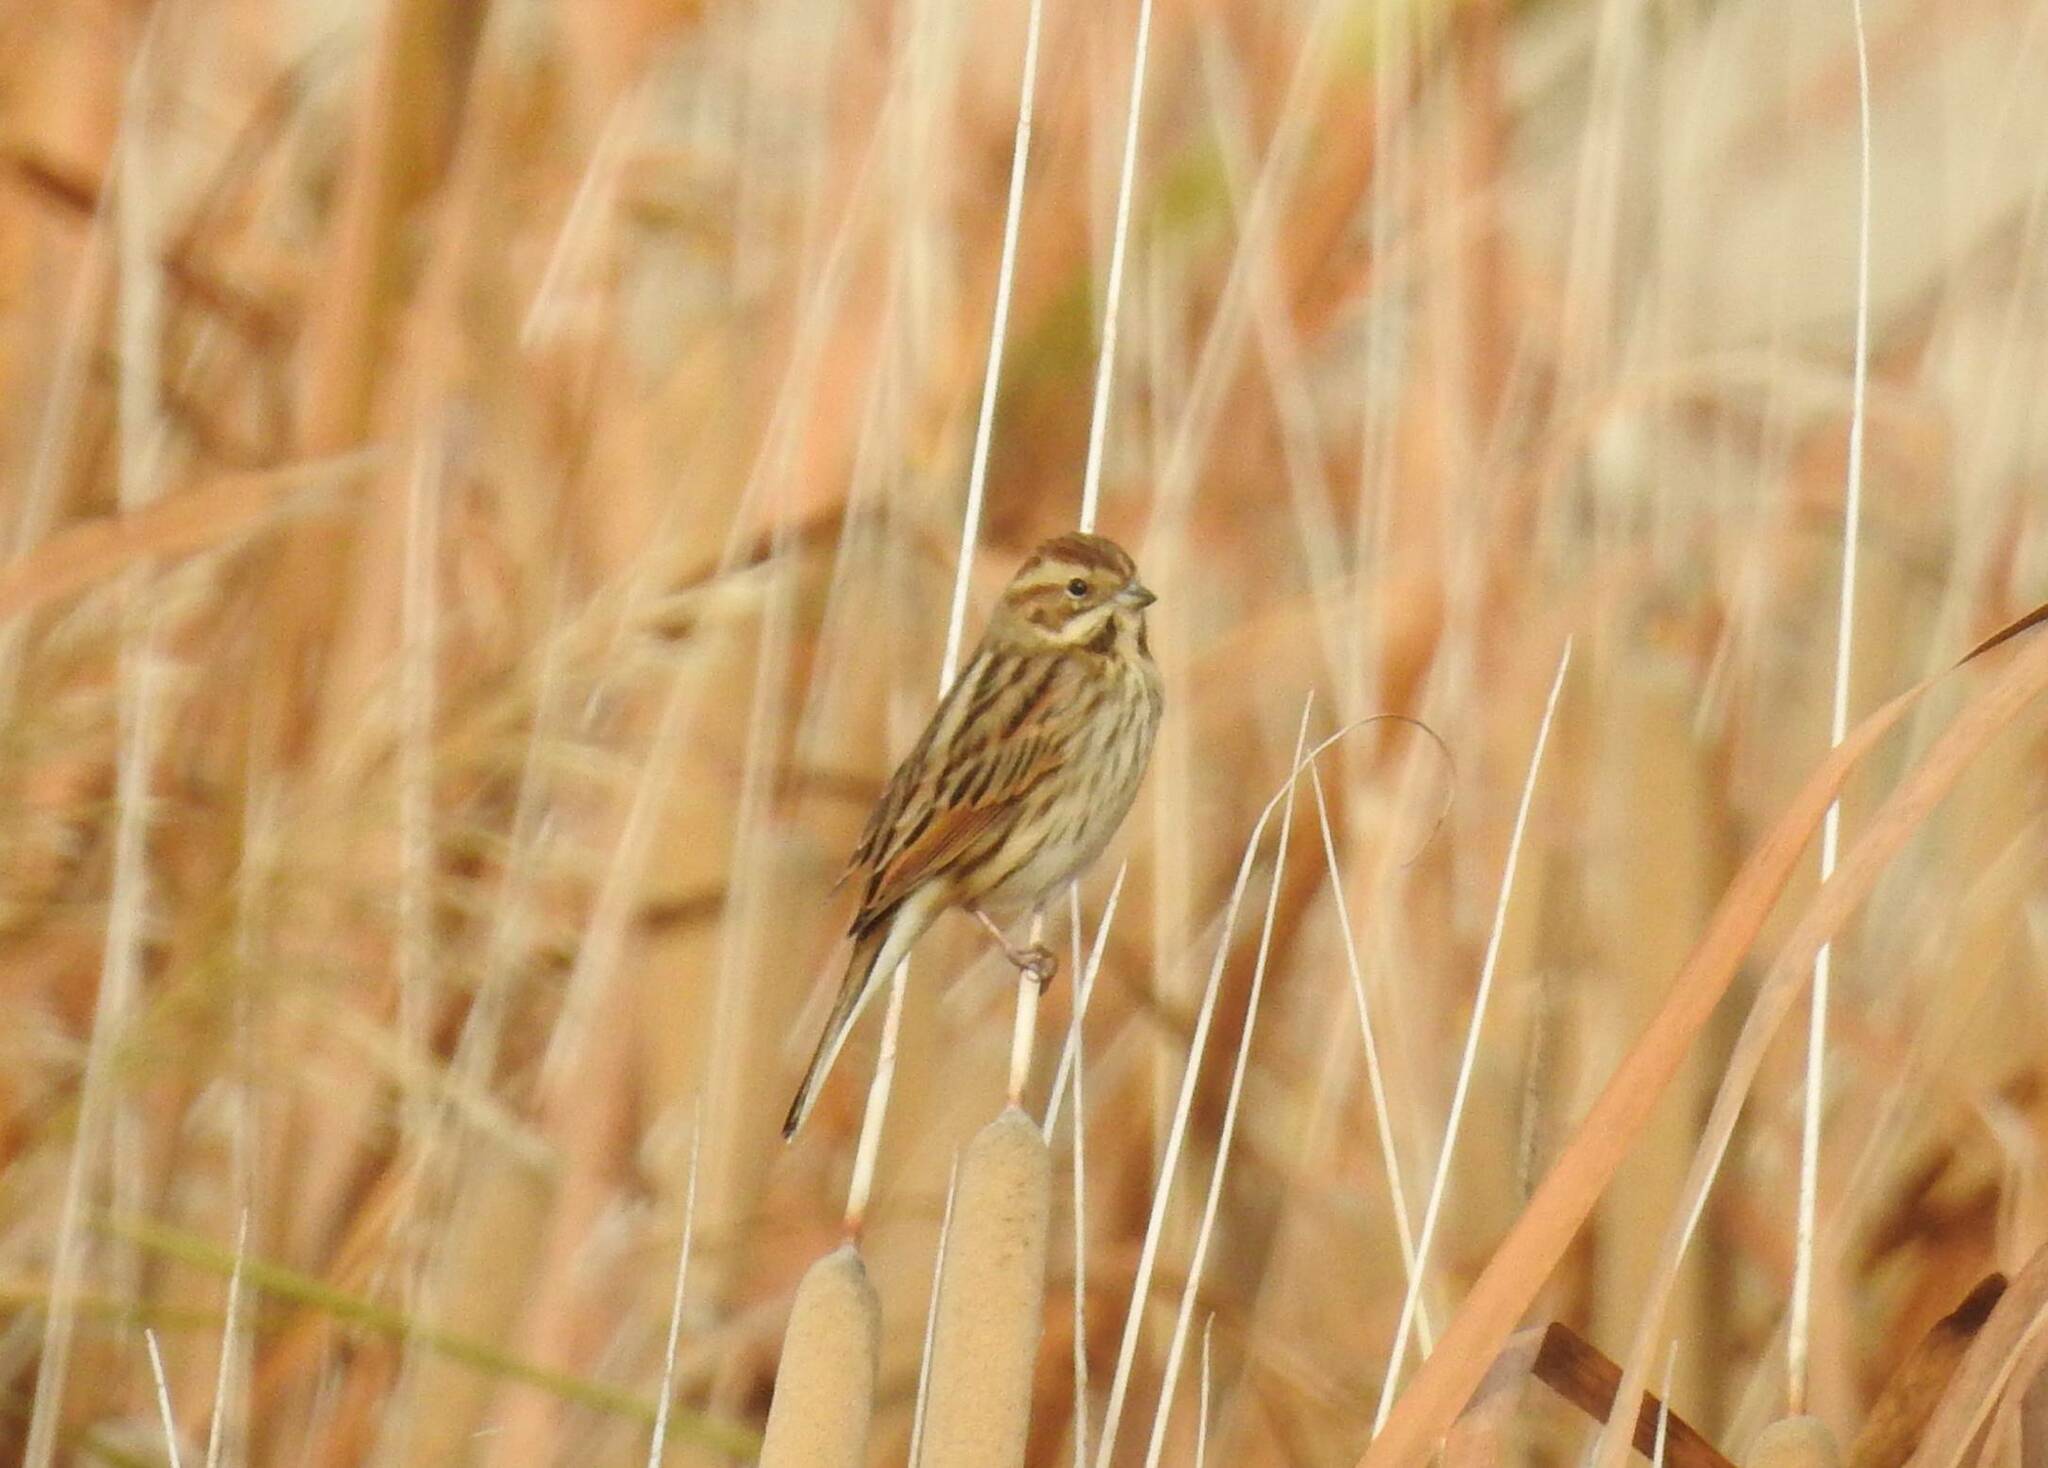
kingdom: Animalia
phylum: Chordata
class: Aves
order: Passeriformes
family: Emberizidae
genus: Emberiza
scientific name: Emberiza schoeniclus
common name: Reed bunting
